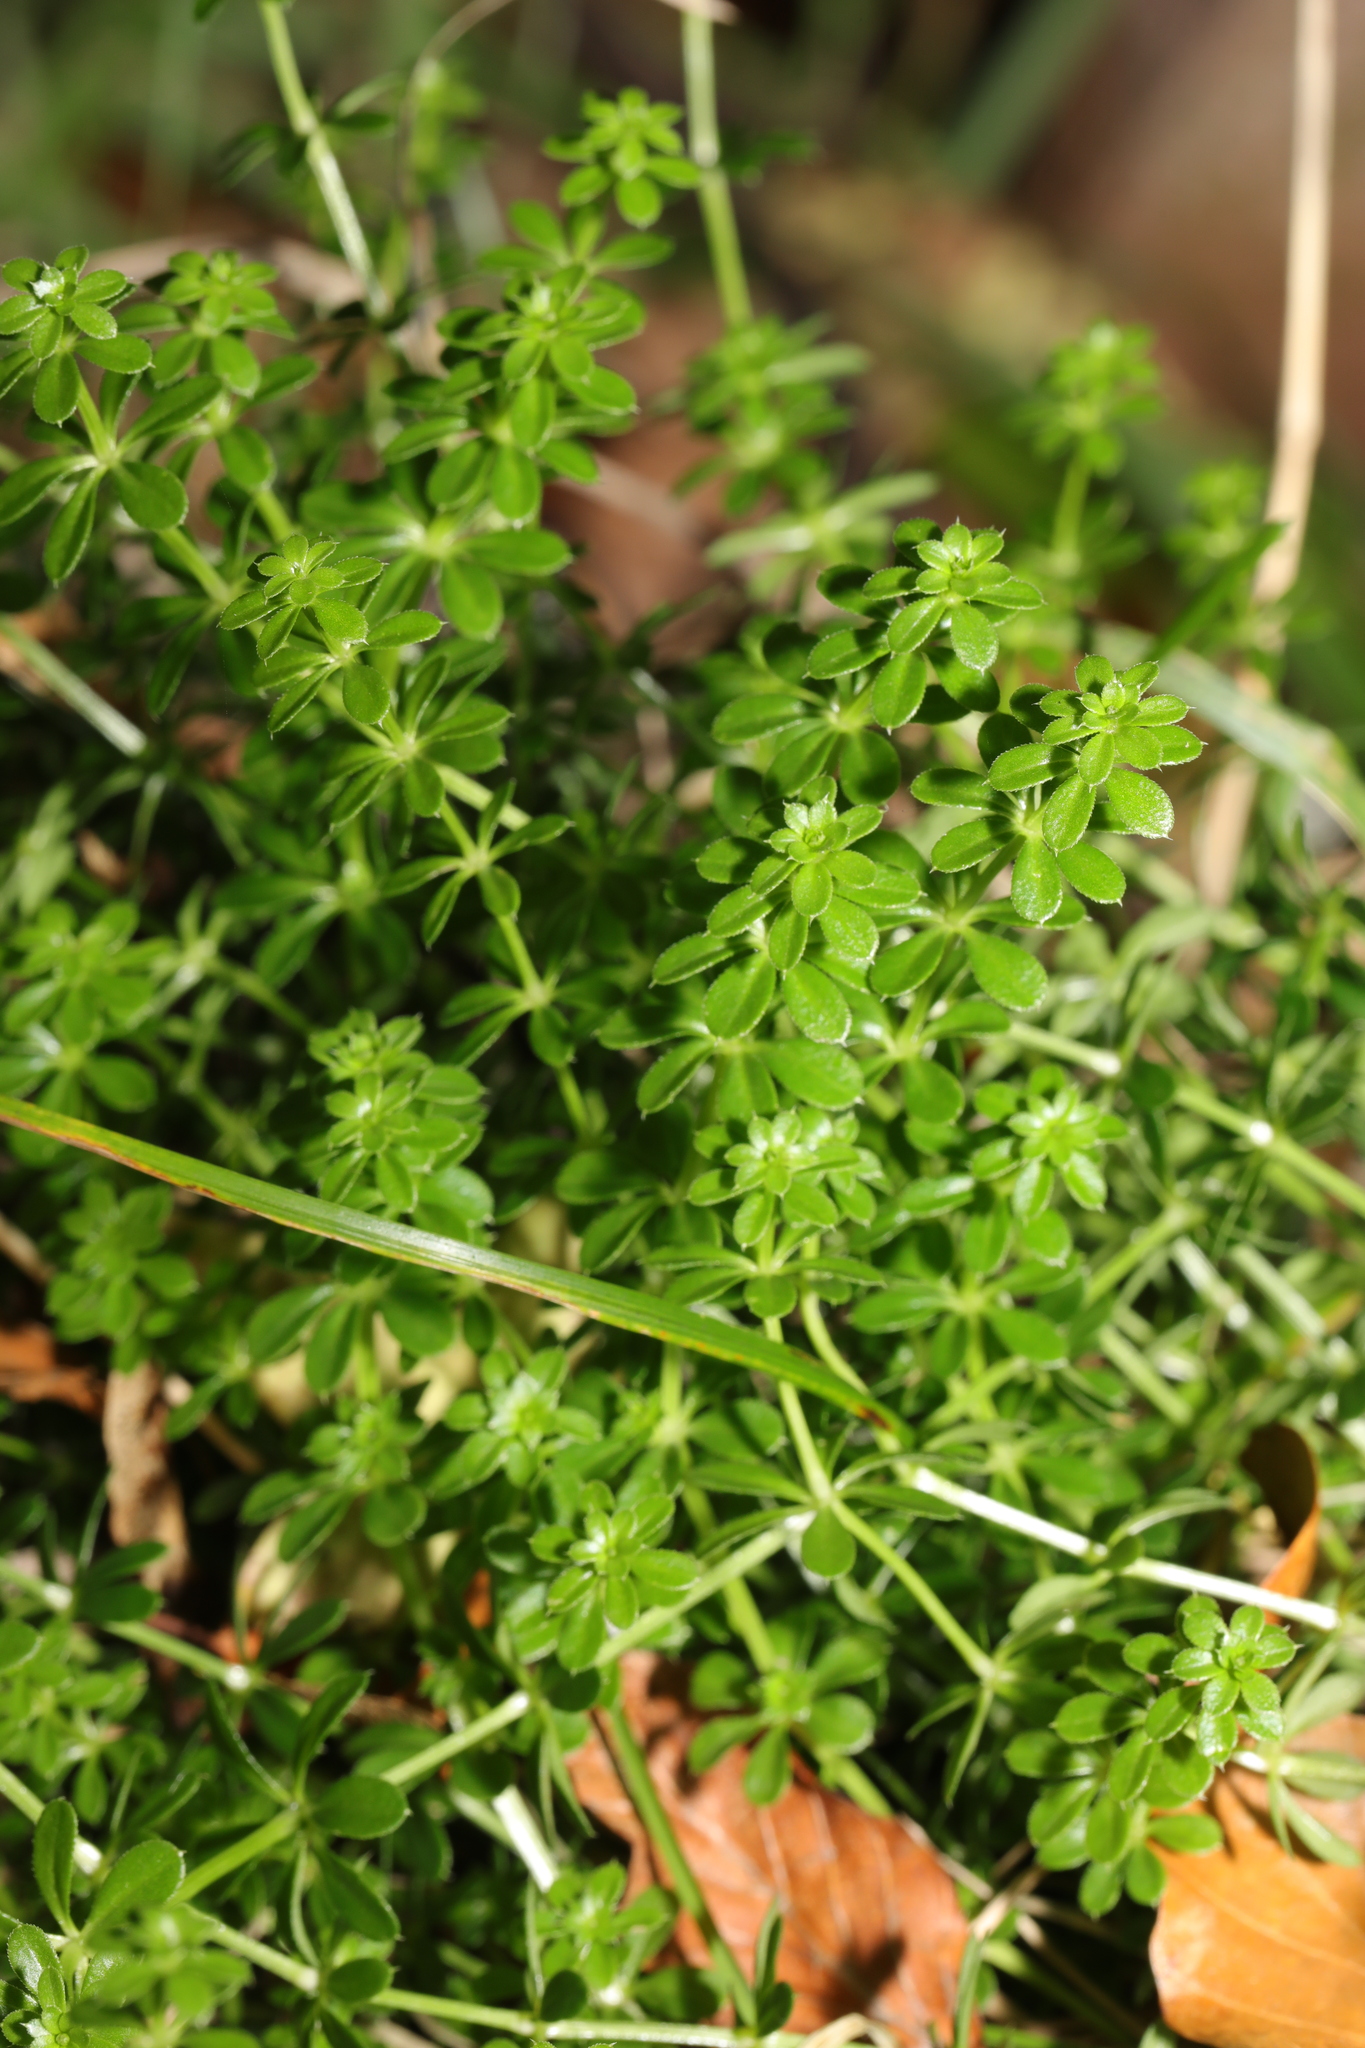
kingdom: Plantae
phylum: Tracheophyta
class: Magnoliopsida
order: Gentianales
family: Rubiaceae
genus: Galium
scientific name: Galium aparine
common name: Cleavers
